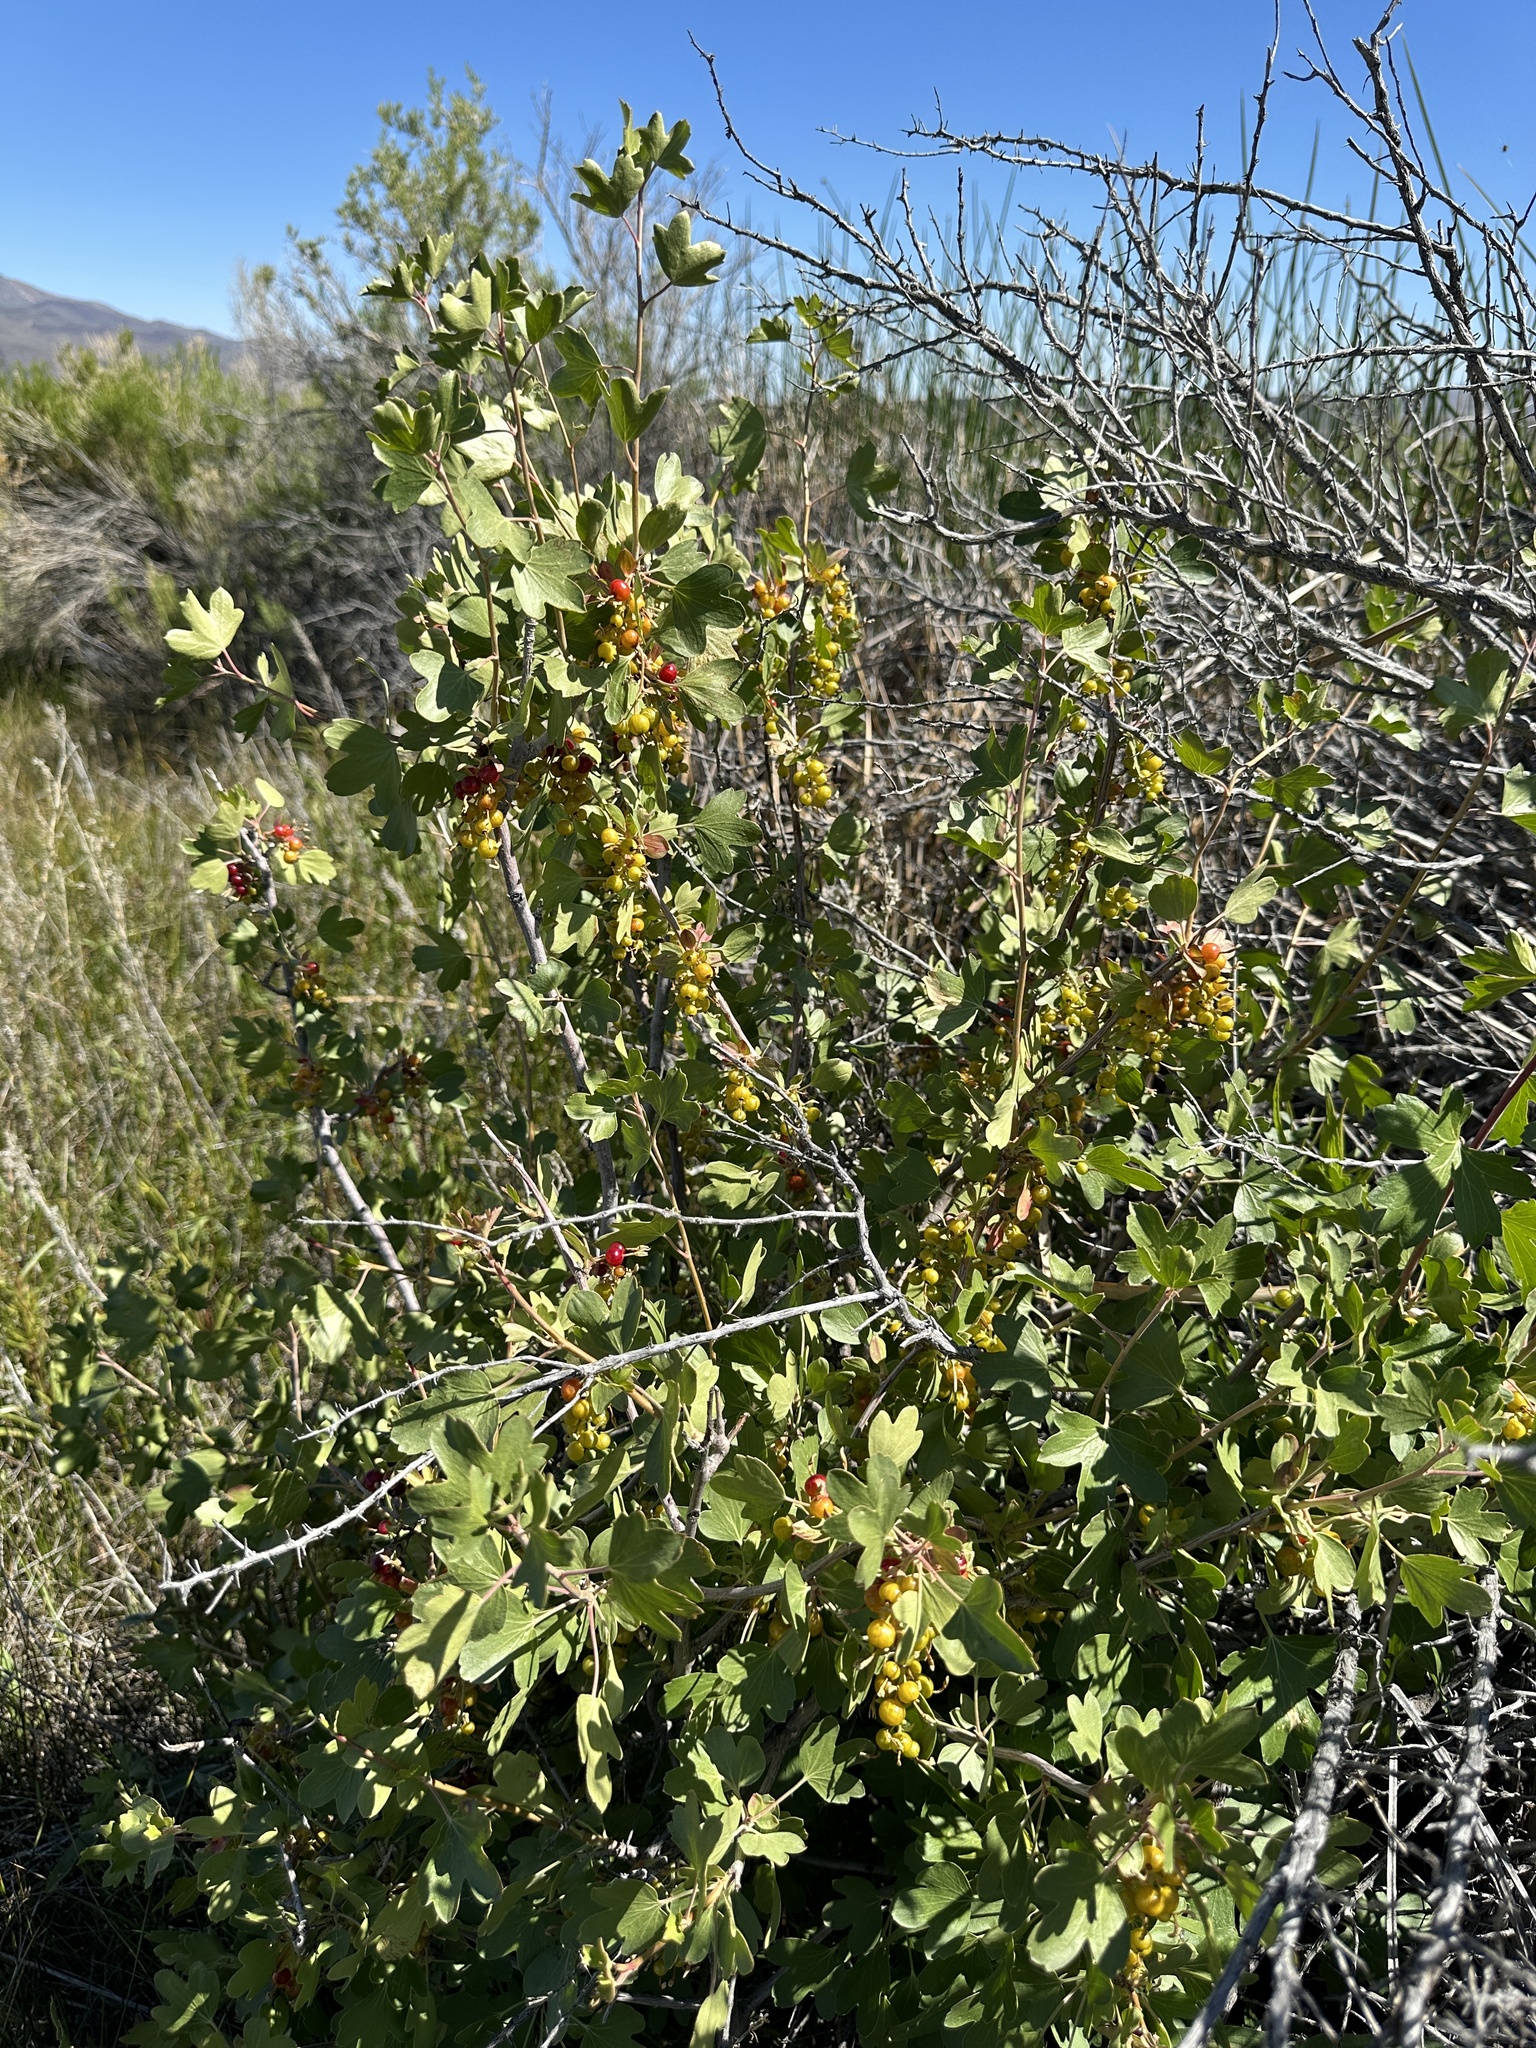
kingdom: Plantae
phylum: Tracheophyta
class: Magnoliopsida
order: Saxifragales
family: Grossulariaceae
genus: Ribes
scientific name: Ribes aureum
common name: Golden currant
